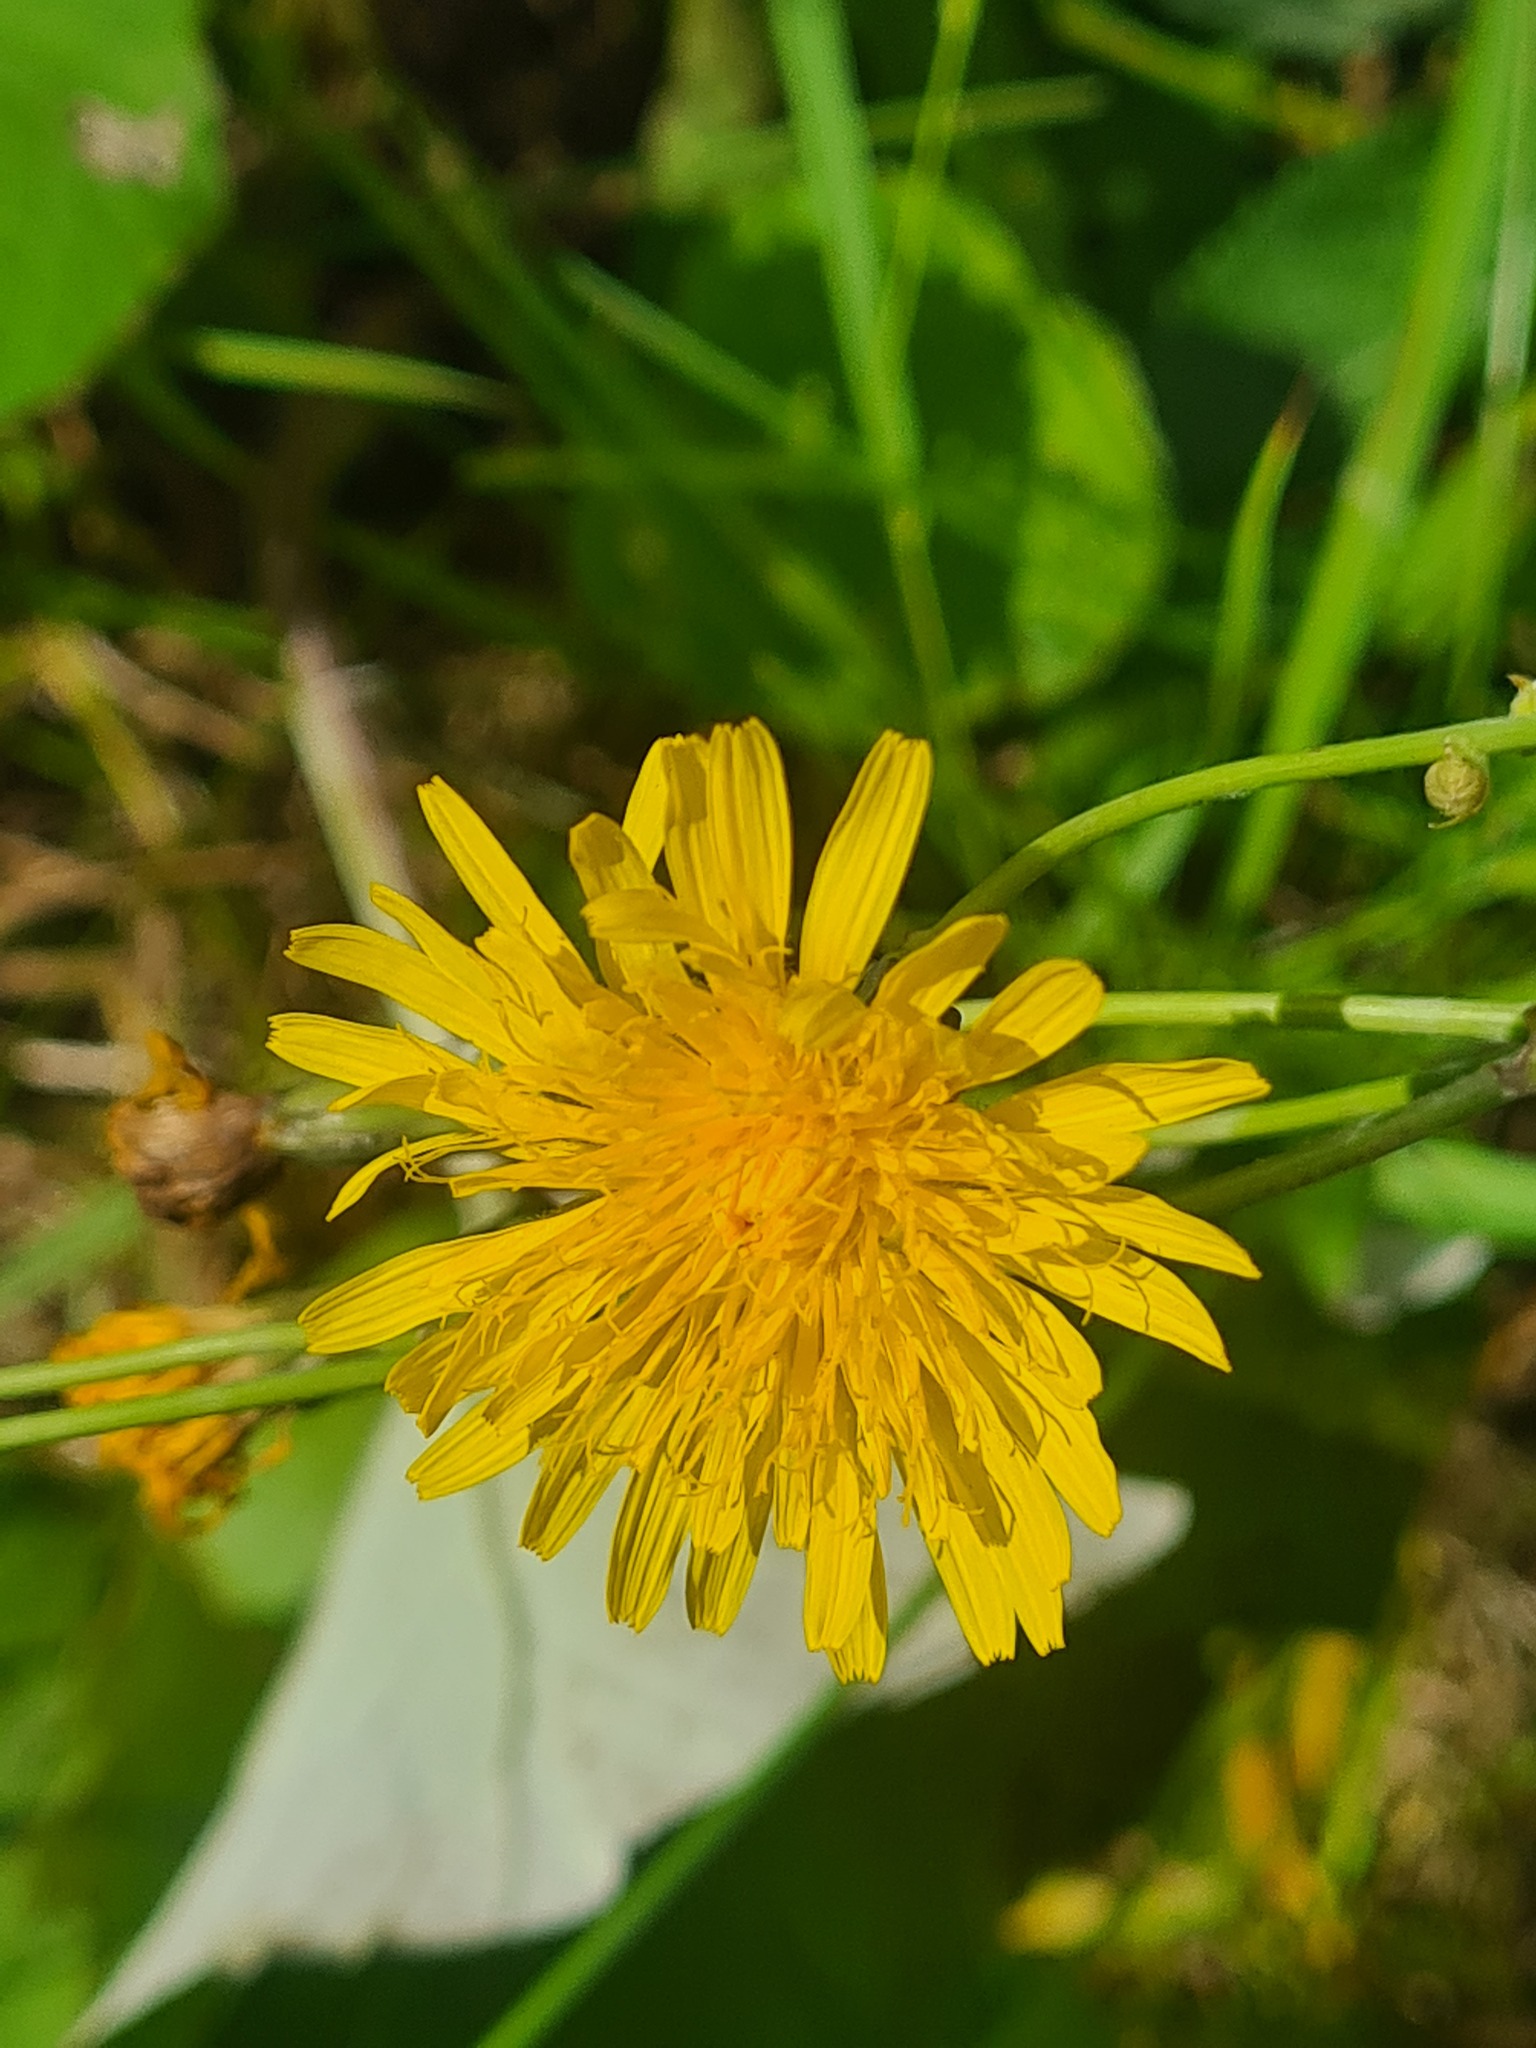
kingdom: Plantae
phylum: Tracheophyta
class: Magnoliopsida
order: Asterales
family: Asteraceae
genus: Sonchus
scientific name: Sonchus arvensis
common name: Perennial sow-thistle
